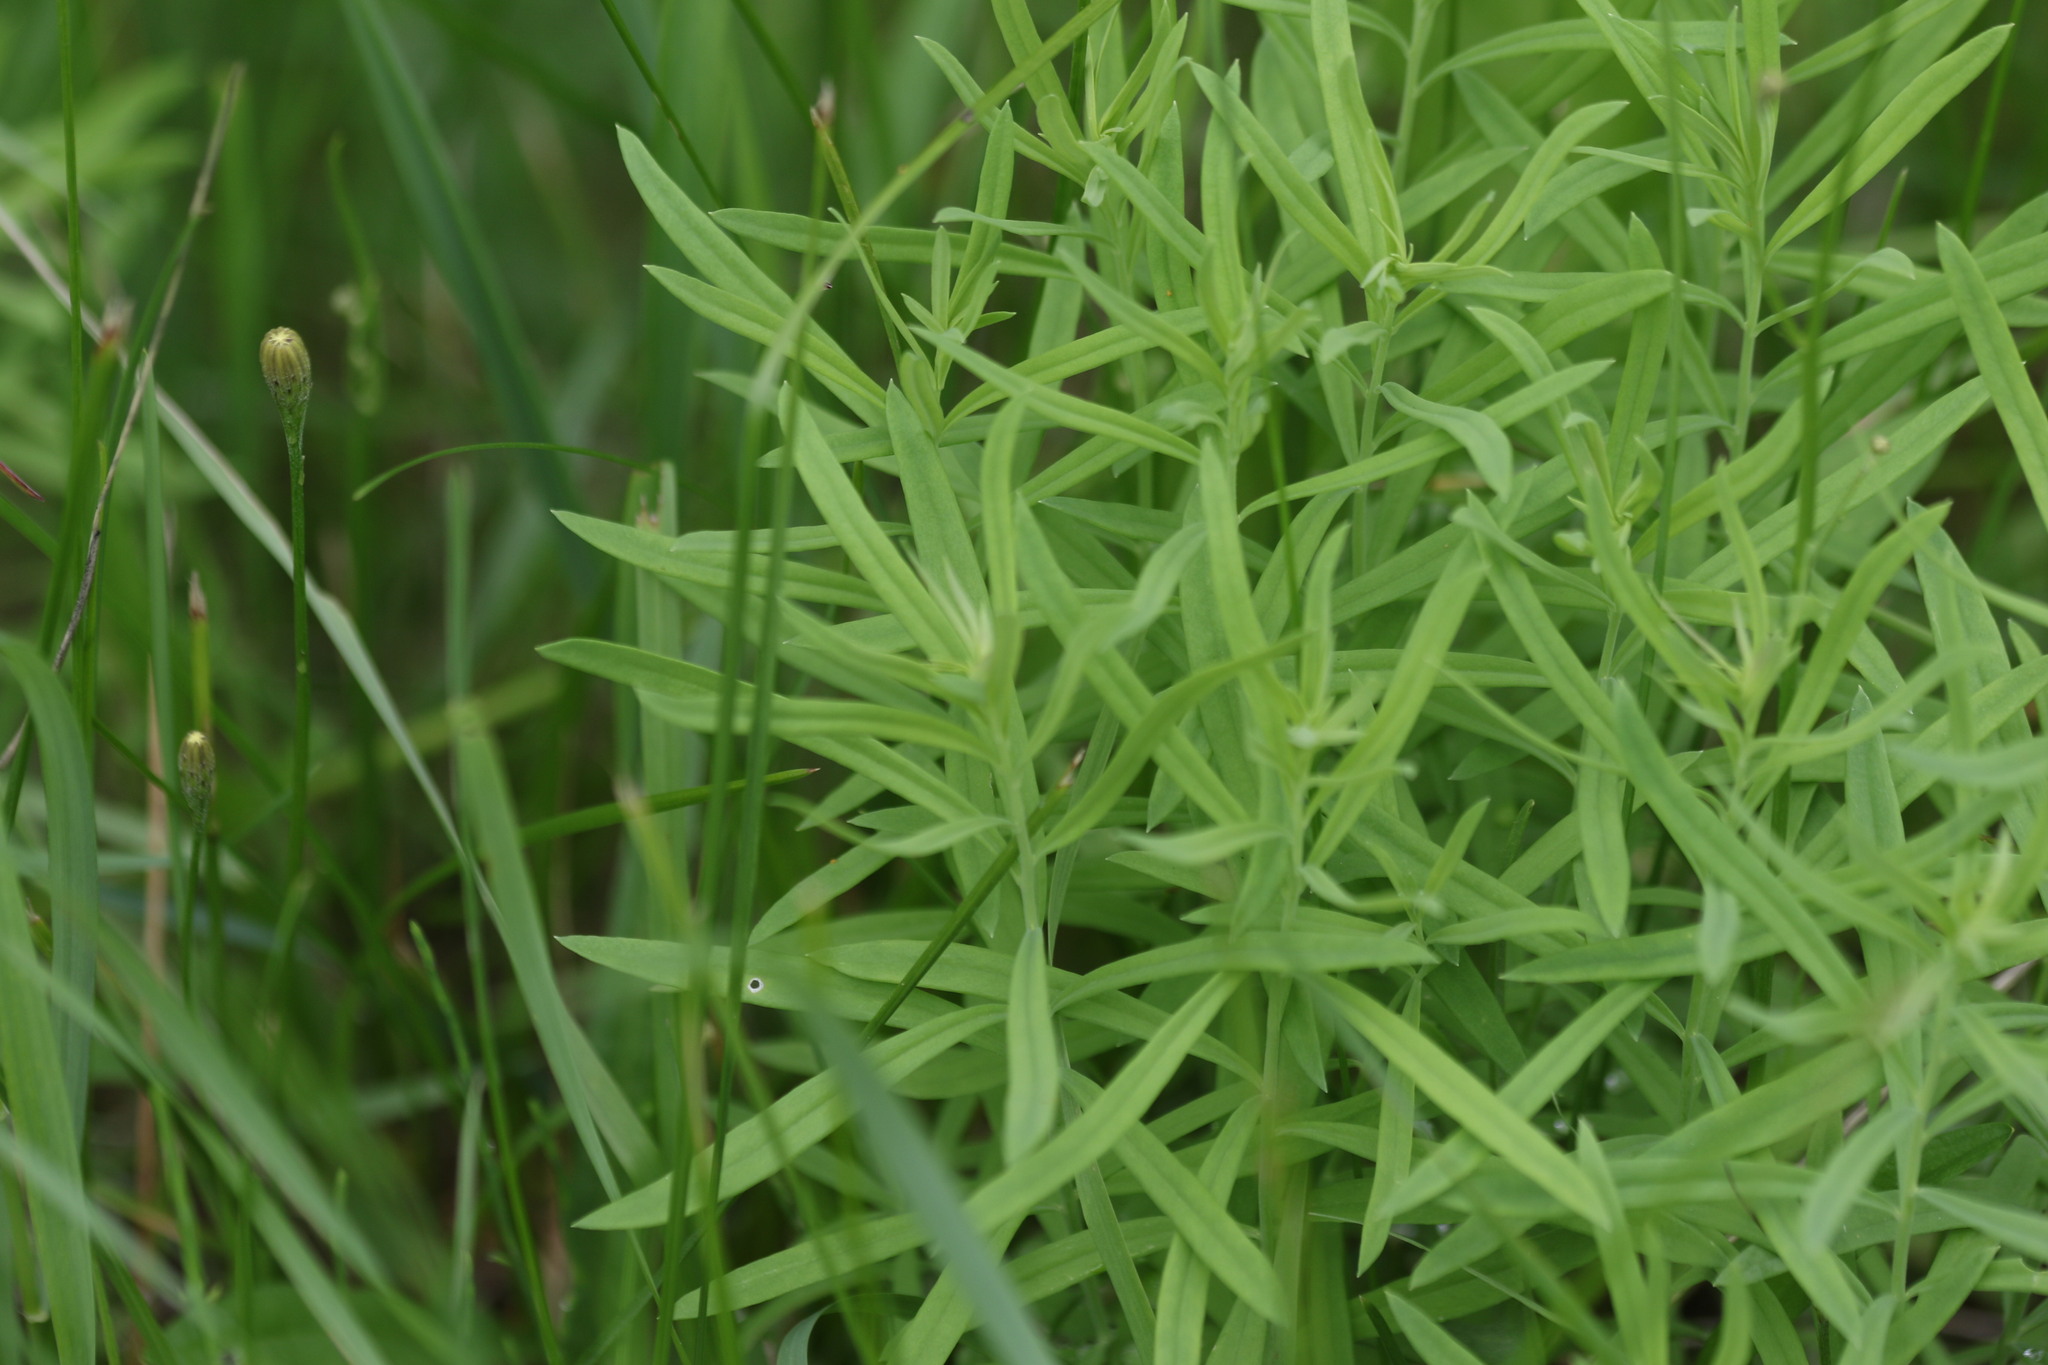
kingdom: Plantae
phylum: Tracheophyta
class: Magnoliopsida
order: Lamiales
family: Plantaginaceae
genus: Linaria
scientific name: Linaria vulgaris
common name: Butter and eggs
